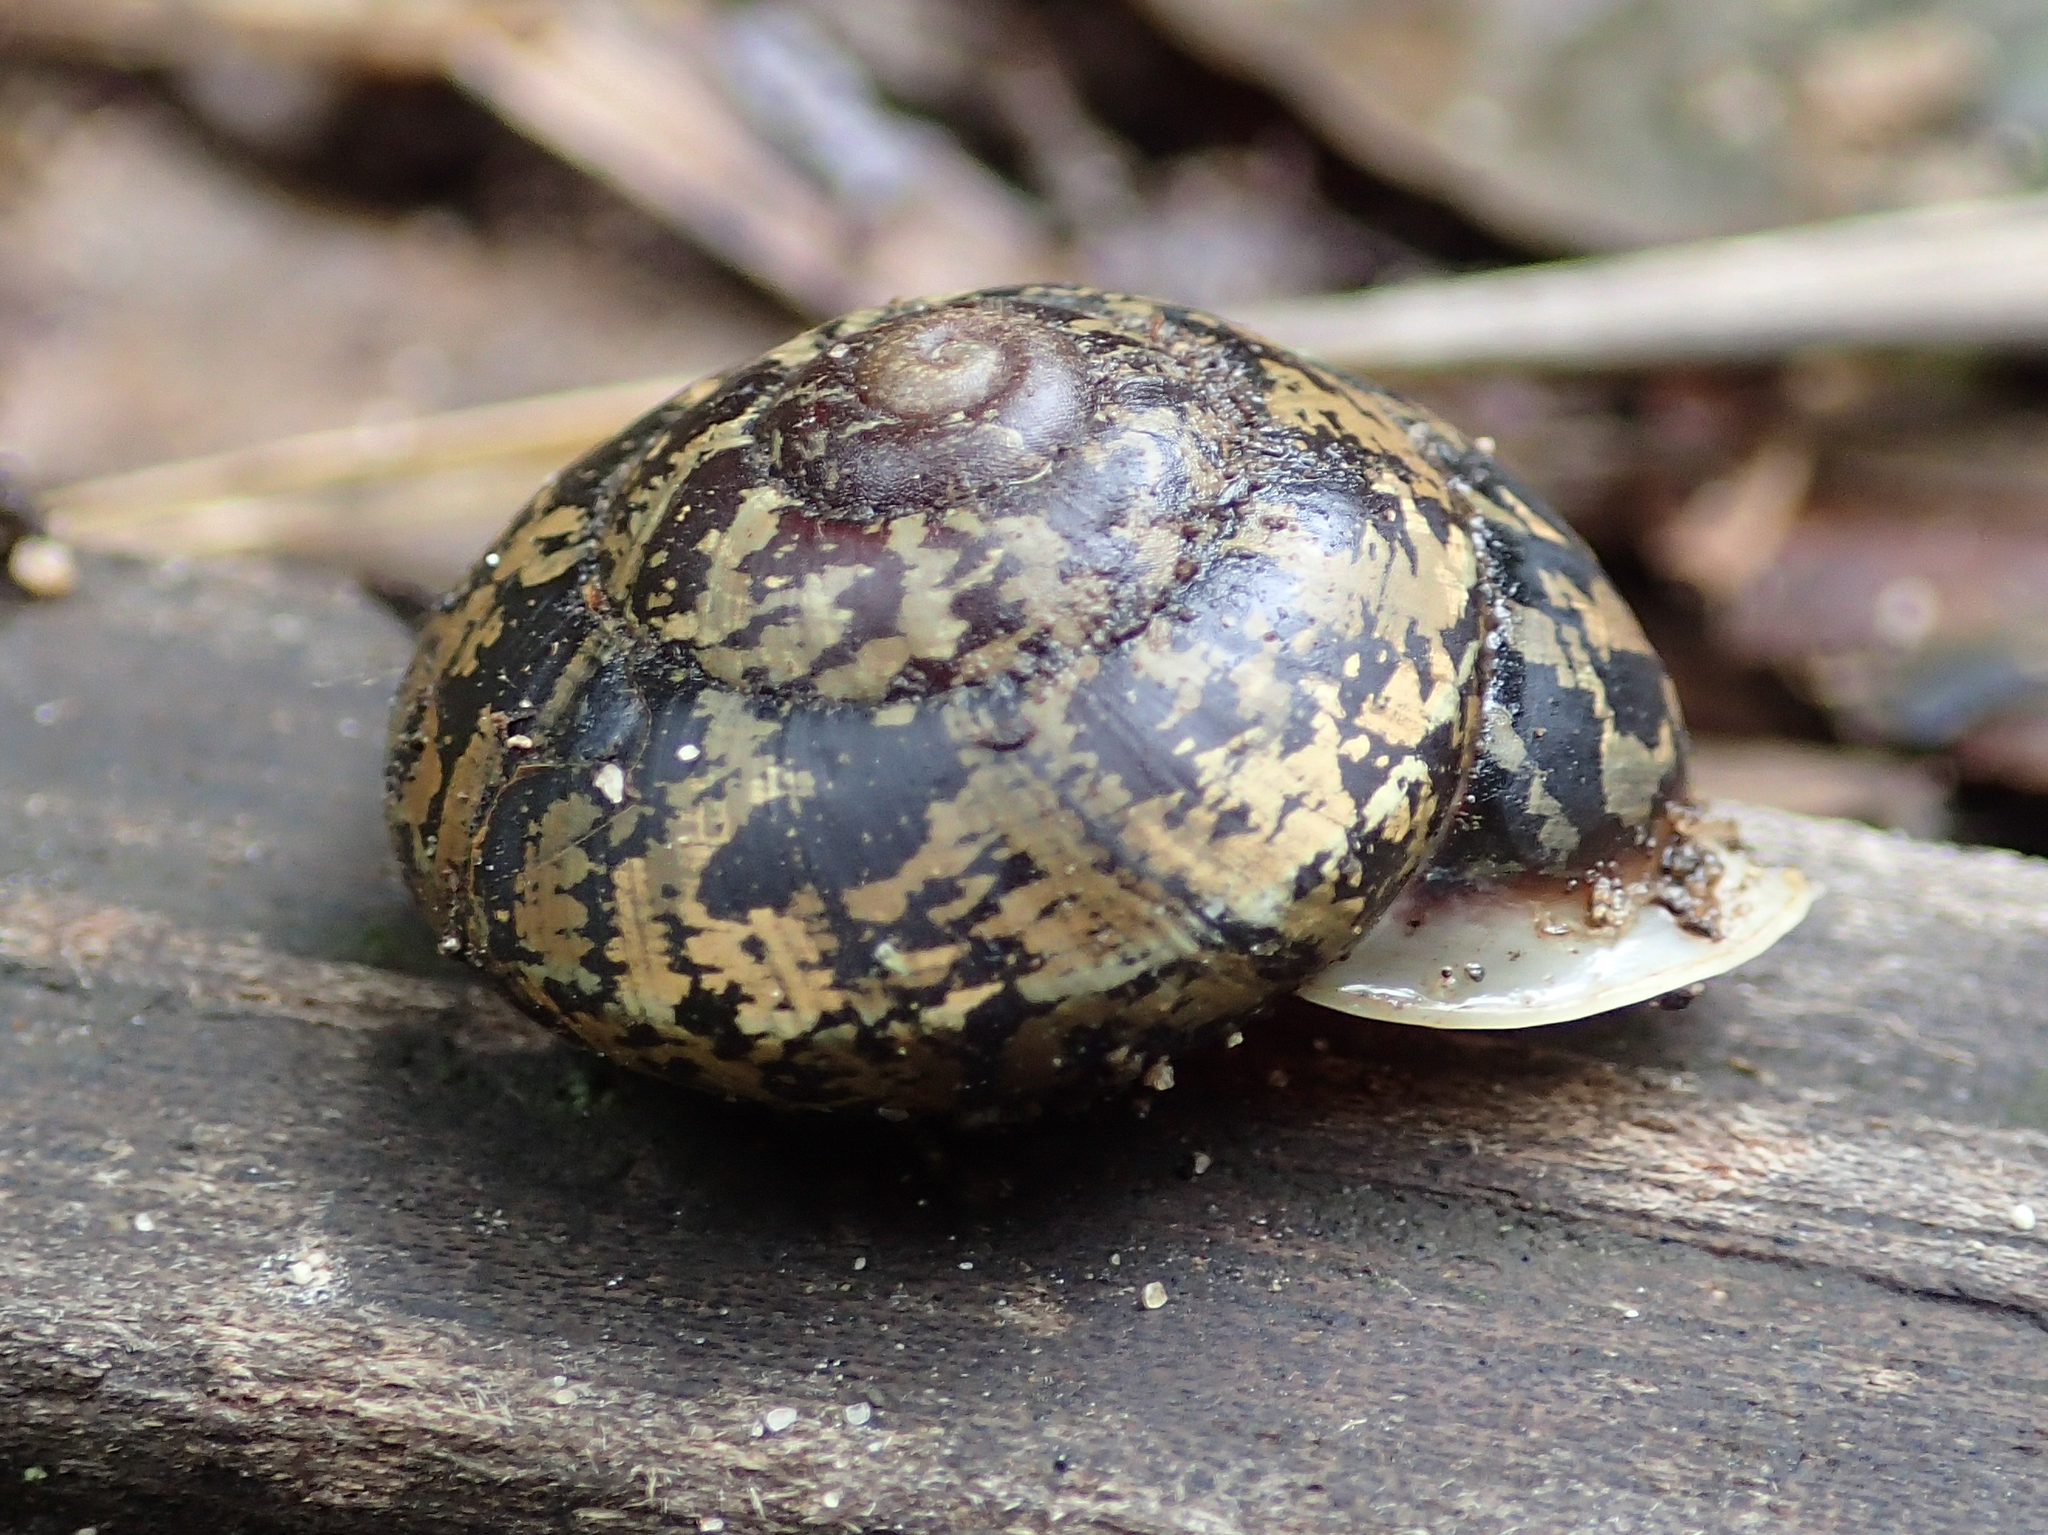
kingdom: Animalia
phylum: Mollusca
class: Gastropoda
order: Stylommatophora
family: Labyrinthidae
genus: Isomeria
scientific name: Isomeria bourcieri
